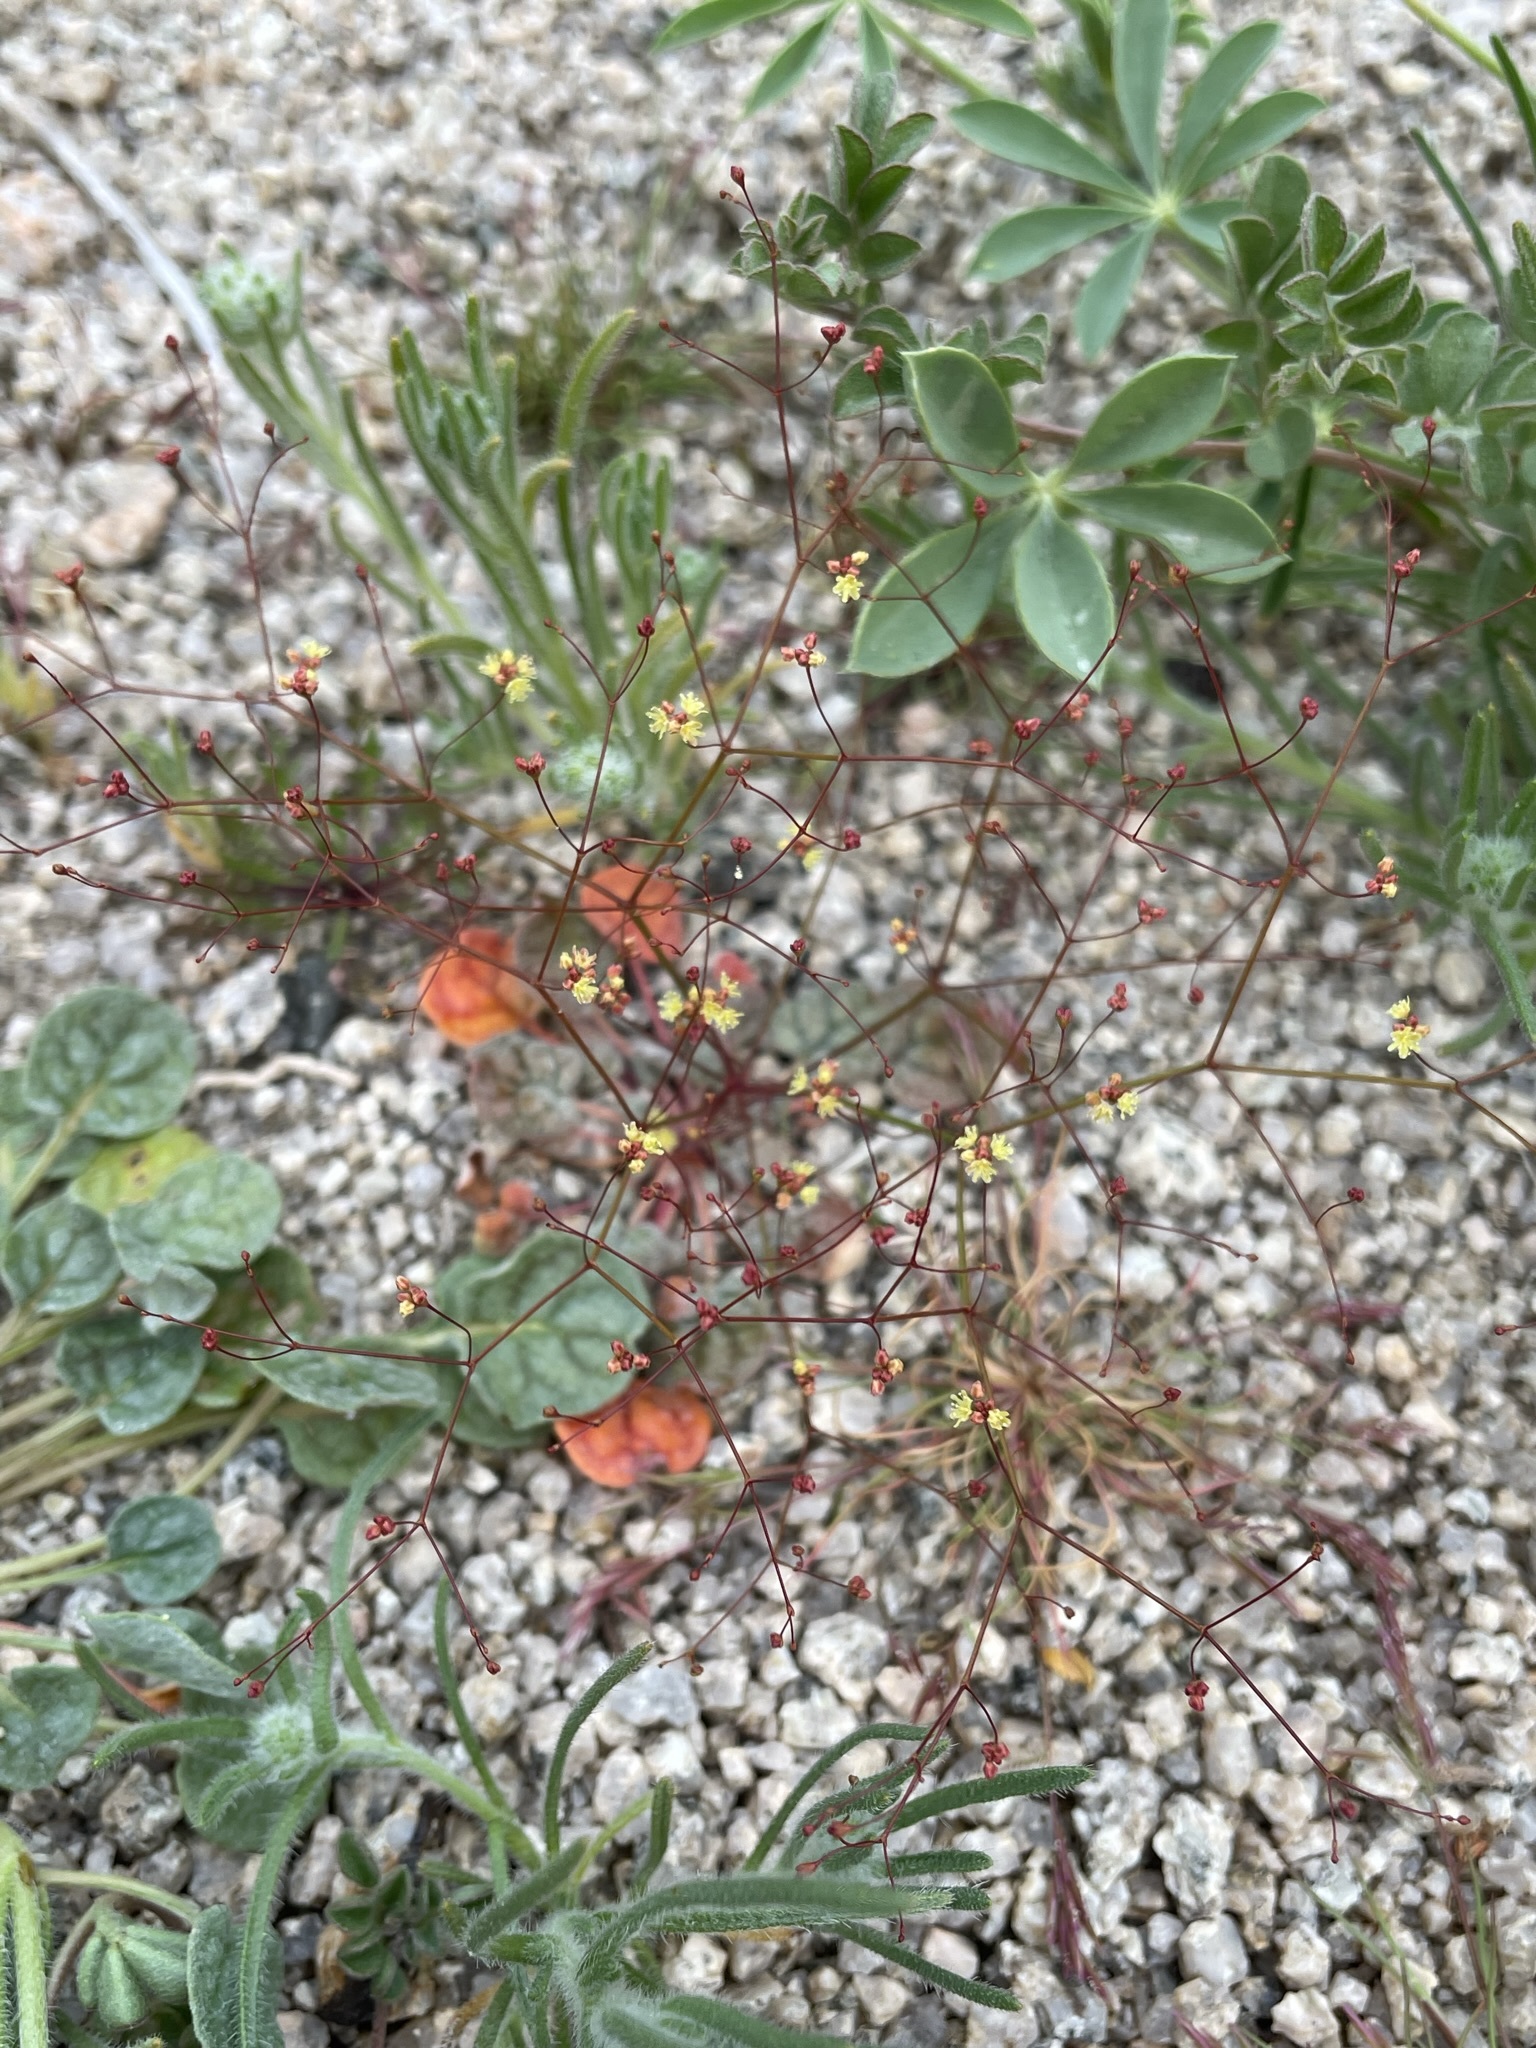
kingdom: Plantae
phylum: Tracheophyta
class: Magnoliopsida
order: Caryophyllales
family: Polygonaceae
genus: Eriogonum
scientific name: Eriogonum thomasii
